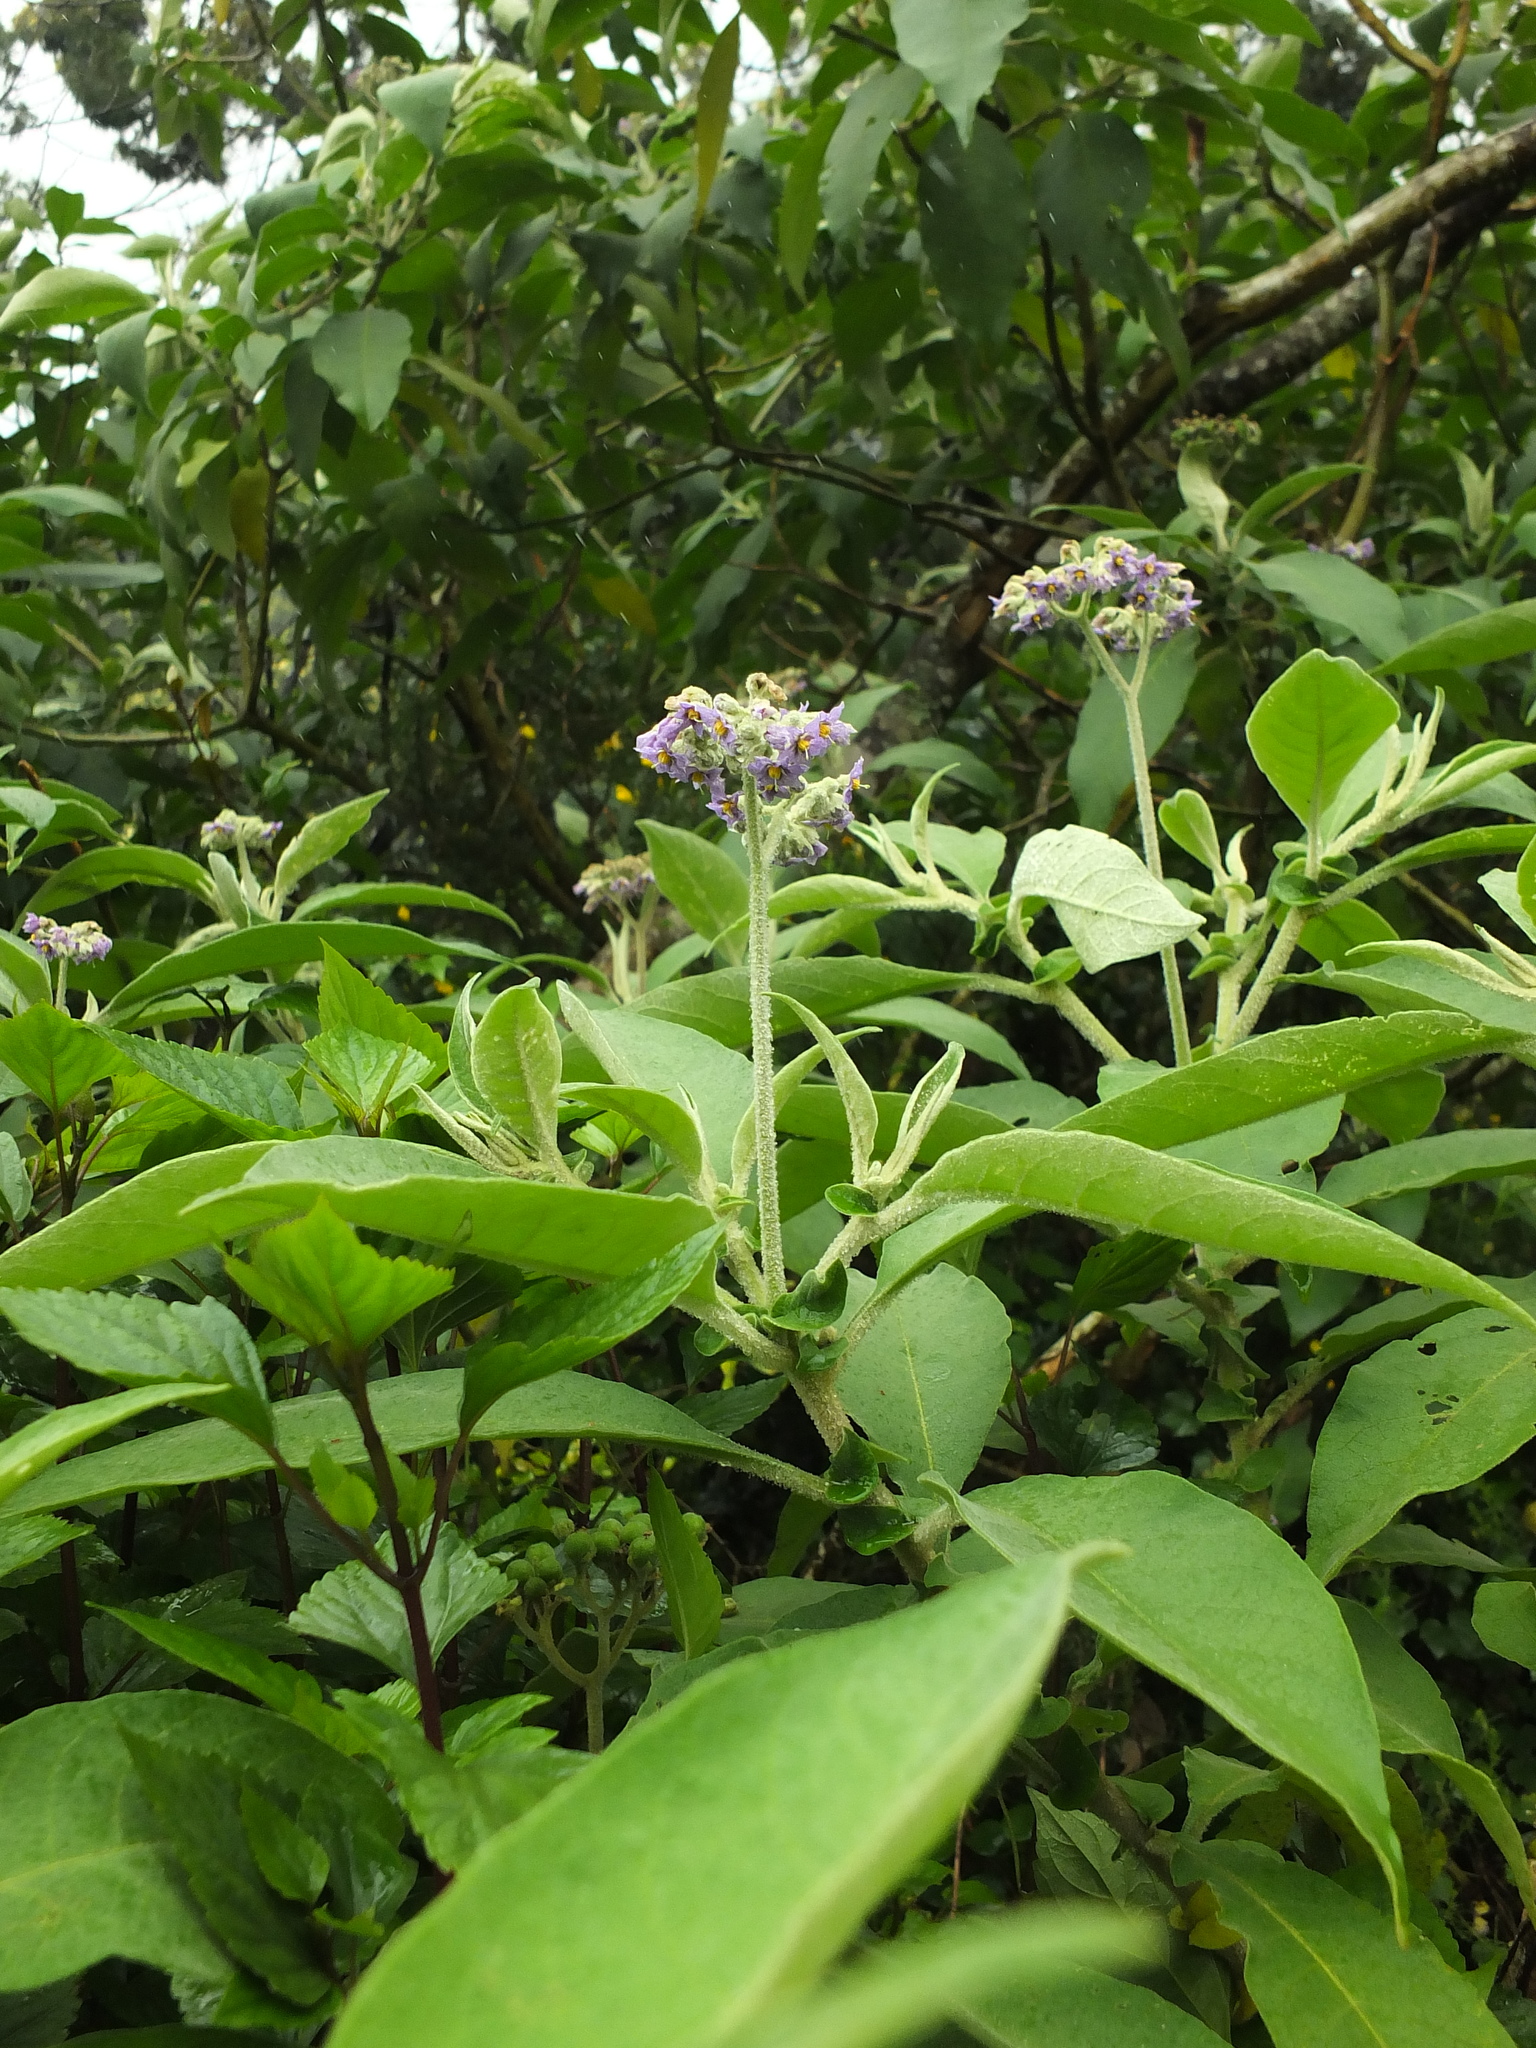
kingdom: Plantae
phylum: Tracheophyta
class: Magnoliopsida
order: Solanales
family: Solanaceae
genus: Solanum
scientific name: Solanum mauritianum
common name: Earleaf nightshade
